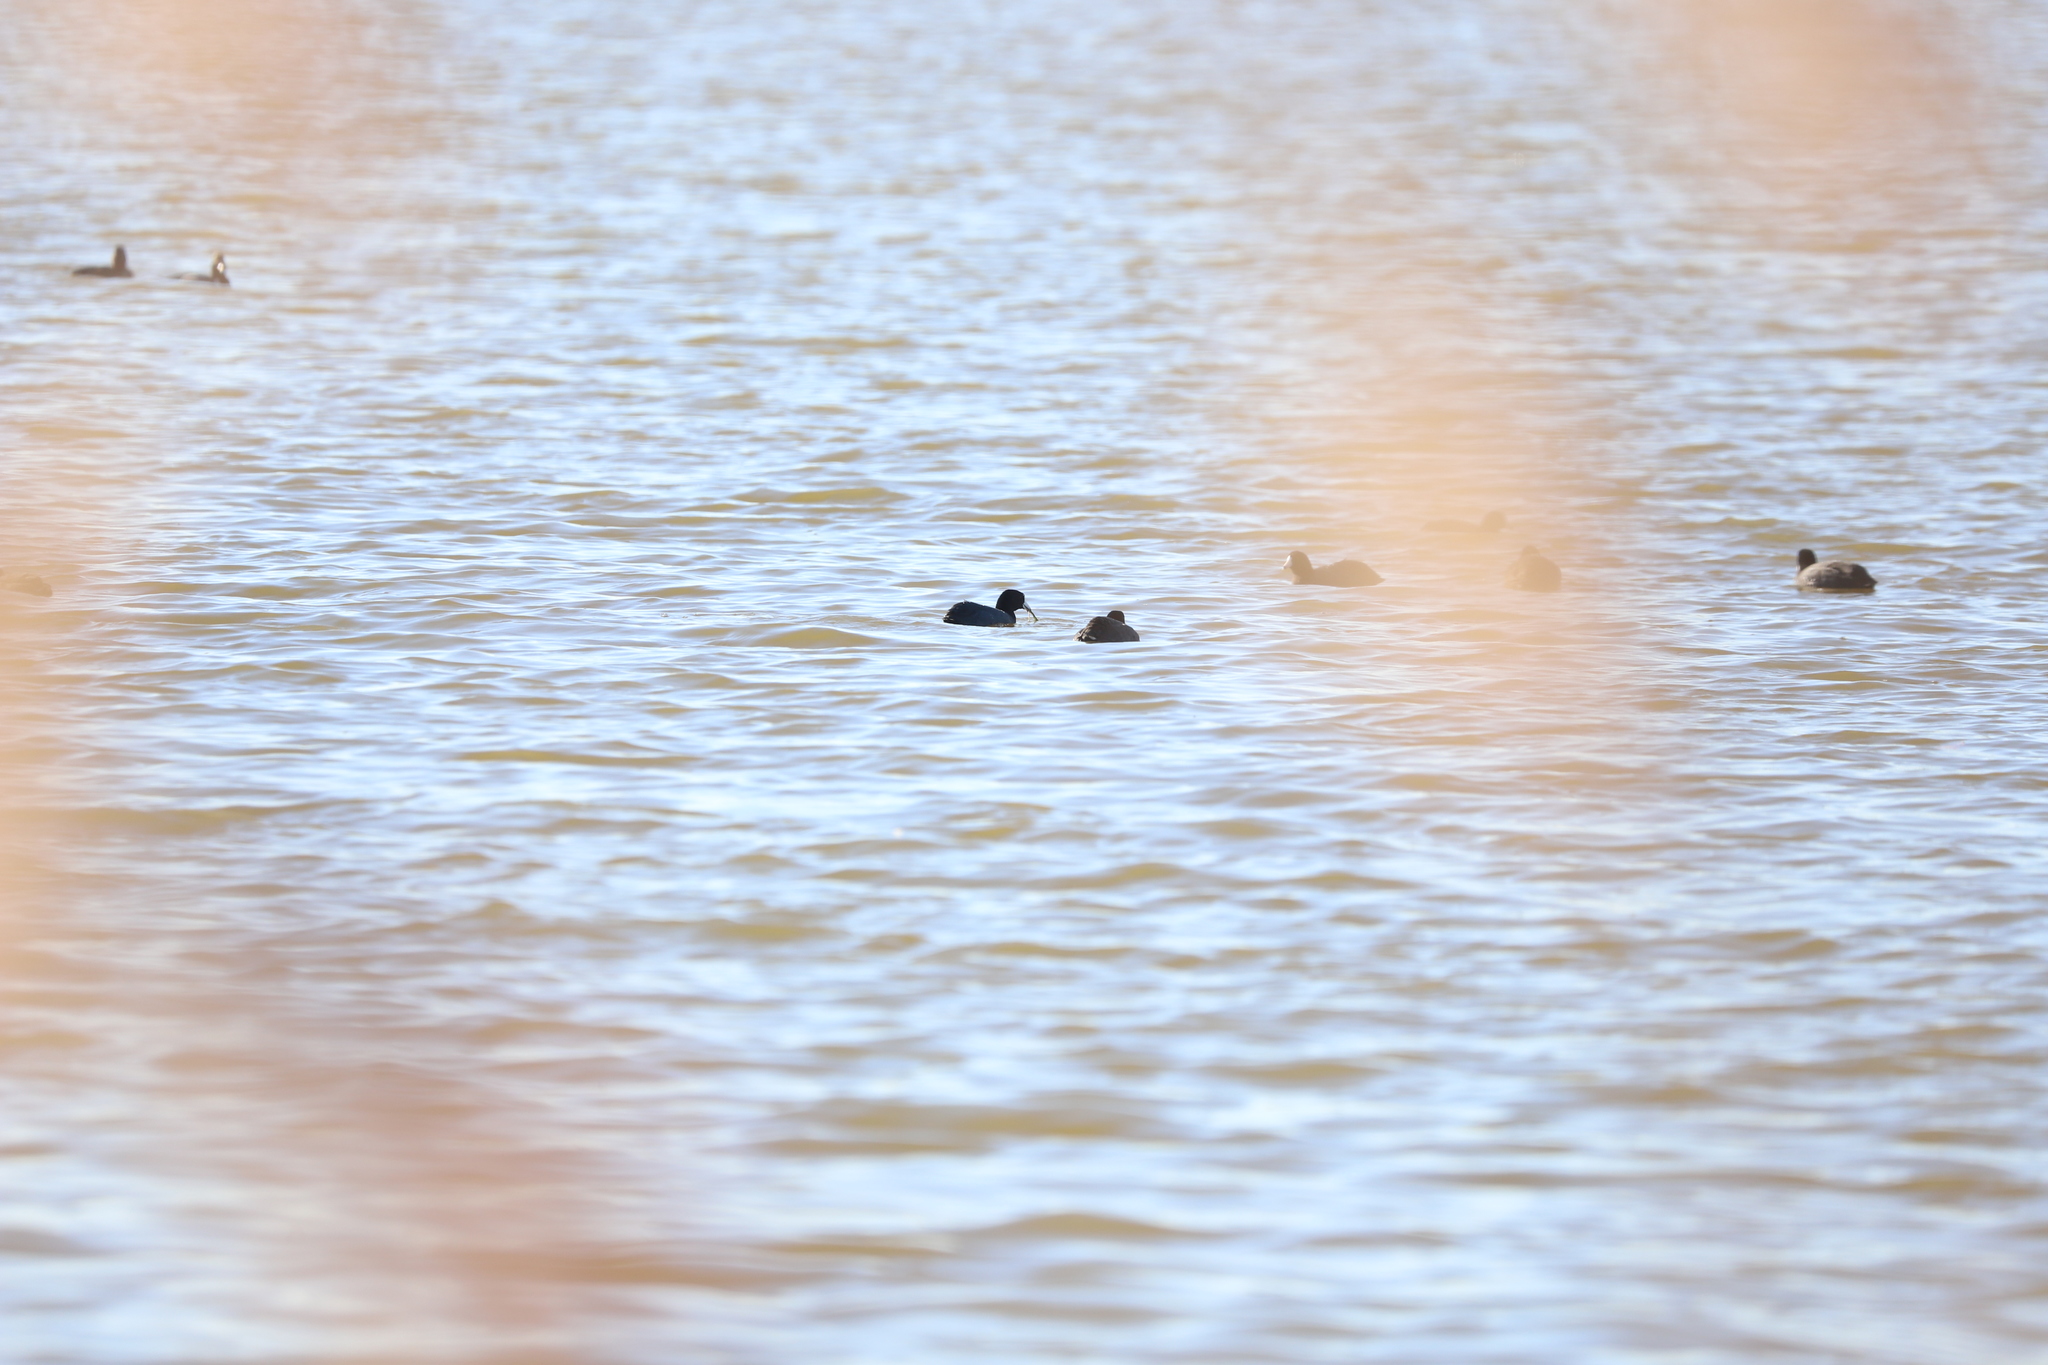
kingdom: Animalia
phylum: Chordata
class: Aves
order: Gruiformes
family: Rallidae
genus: Fulica
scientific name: Fulica americana
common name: American coot
